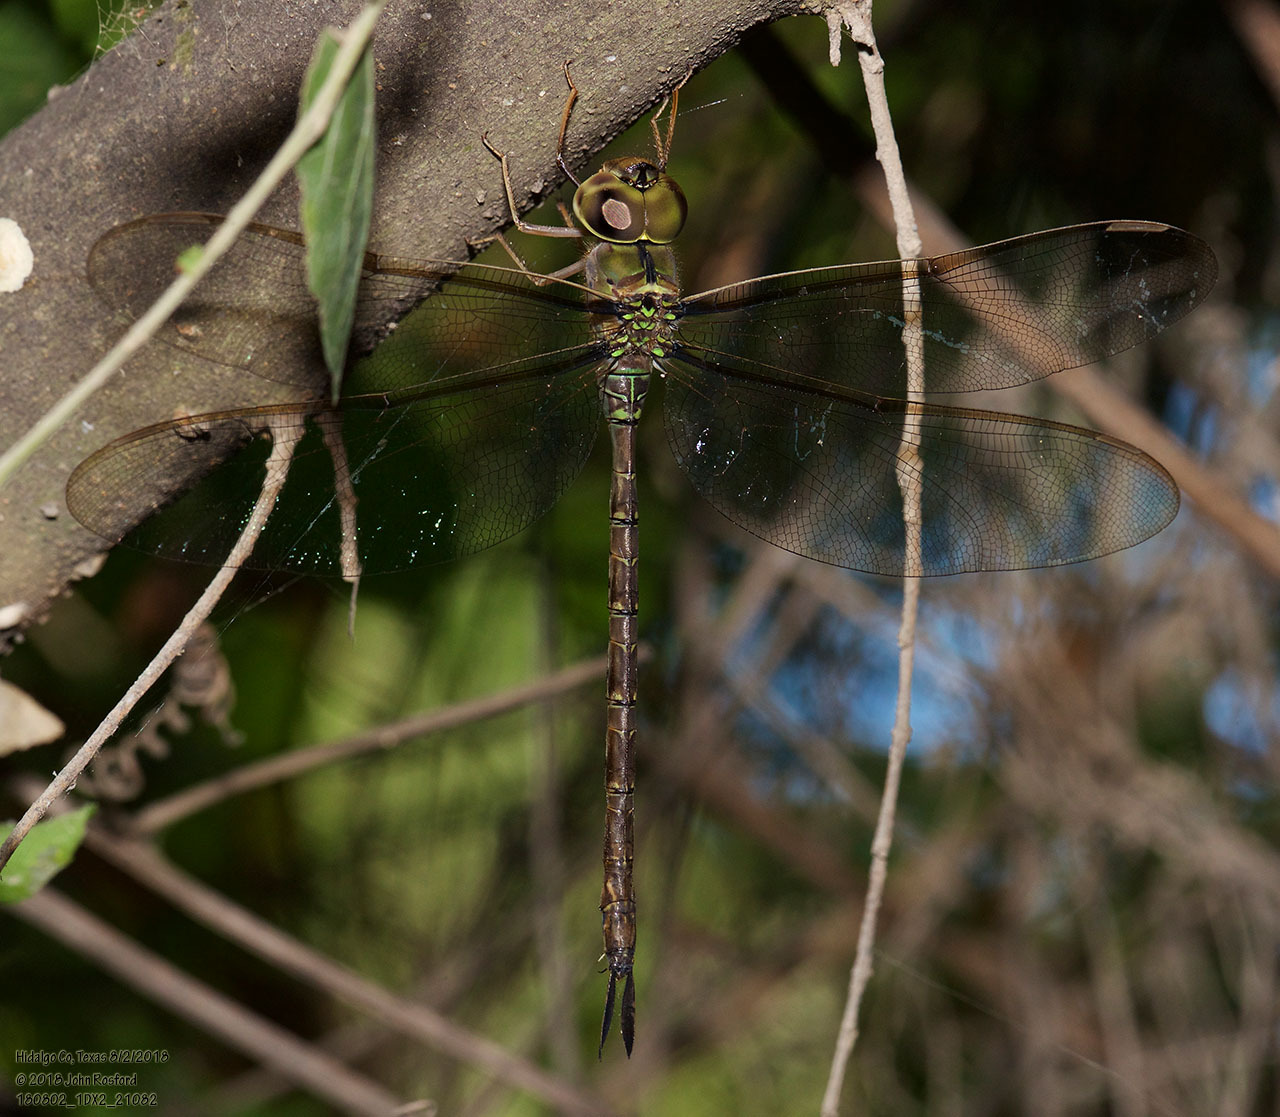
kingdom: Animalia
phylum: Arthropoda
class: Insecta
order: Odonata
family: Aeshnidae
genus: Gynacantha
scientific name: Gynacantha mexicana
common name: Bar-sided darner
